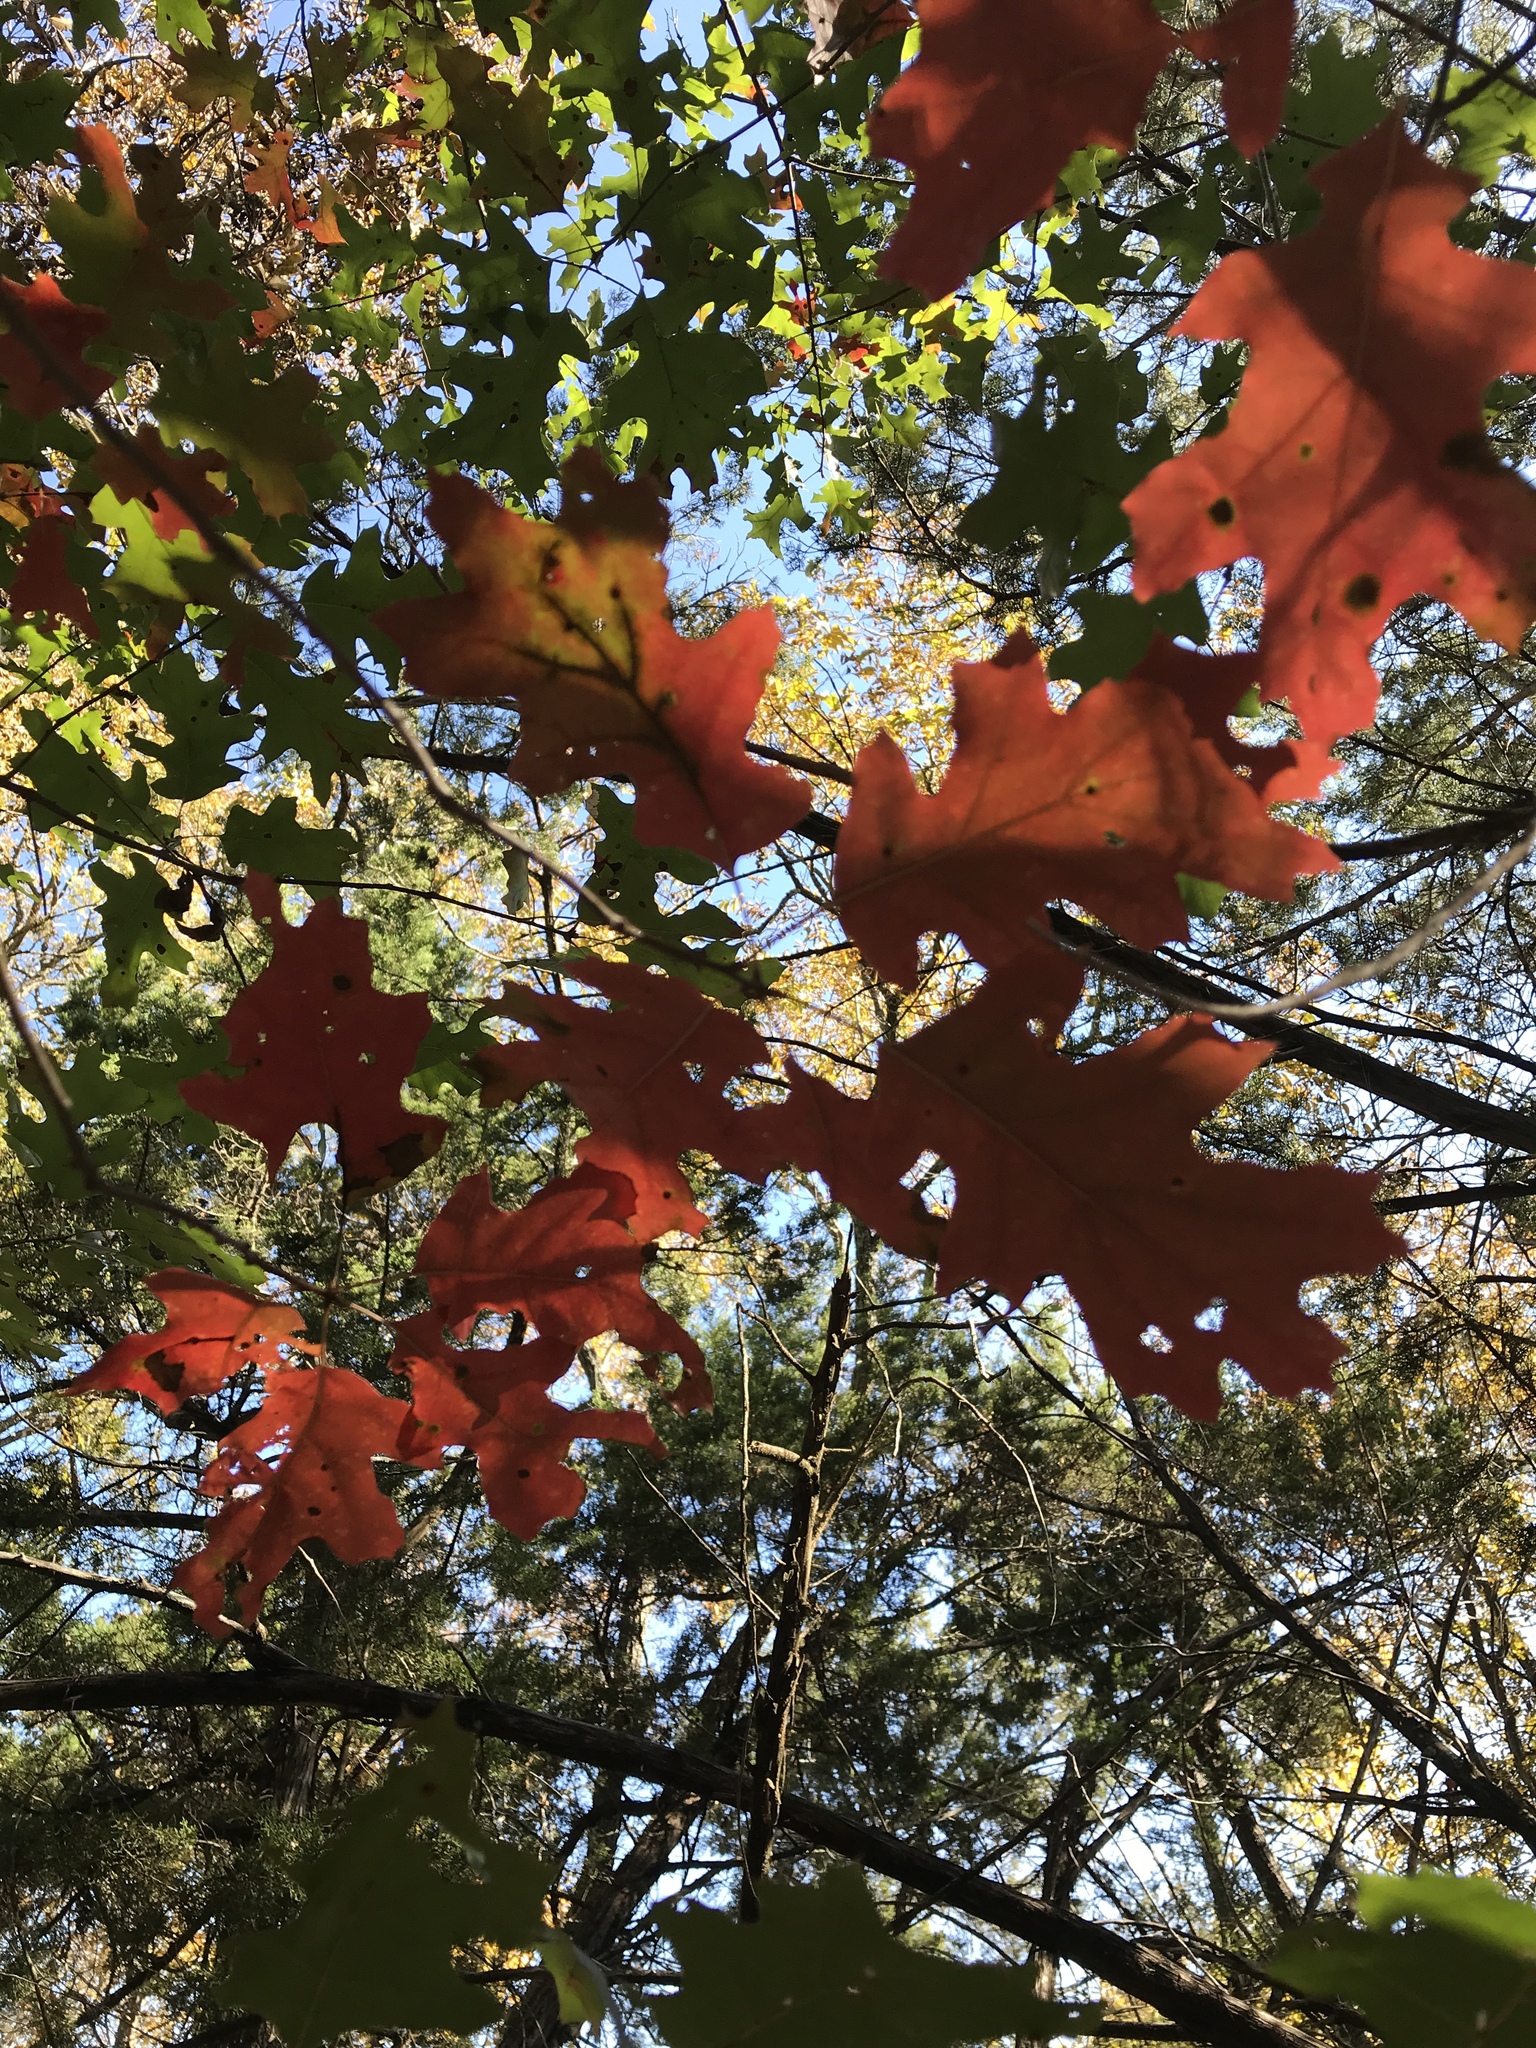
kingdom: Plantae
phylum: Tracheophyta
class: Magnoliopsida
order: Fagales
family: Fagaceae
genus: Quercus
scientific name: Quercus buckleyi
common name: Buckley oak
